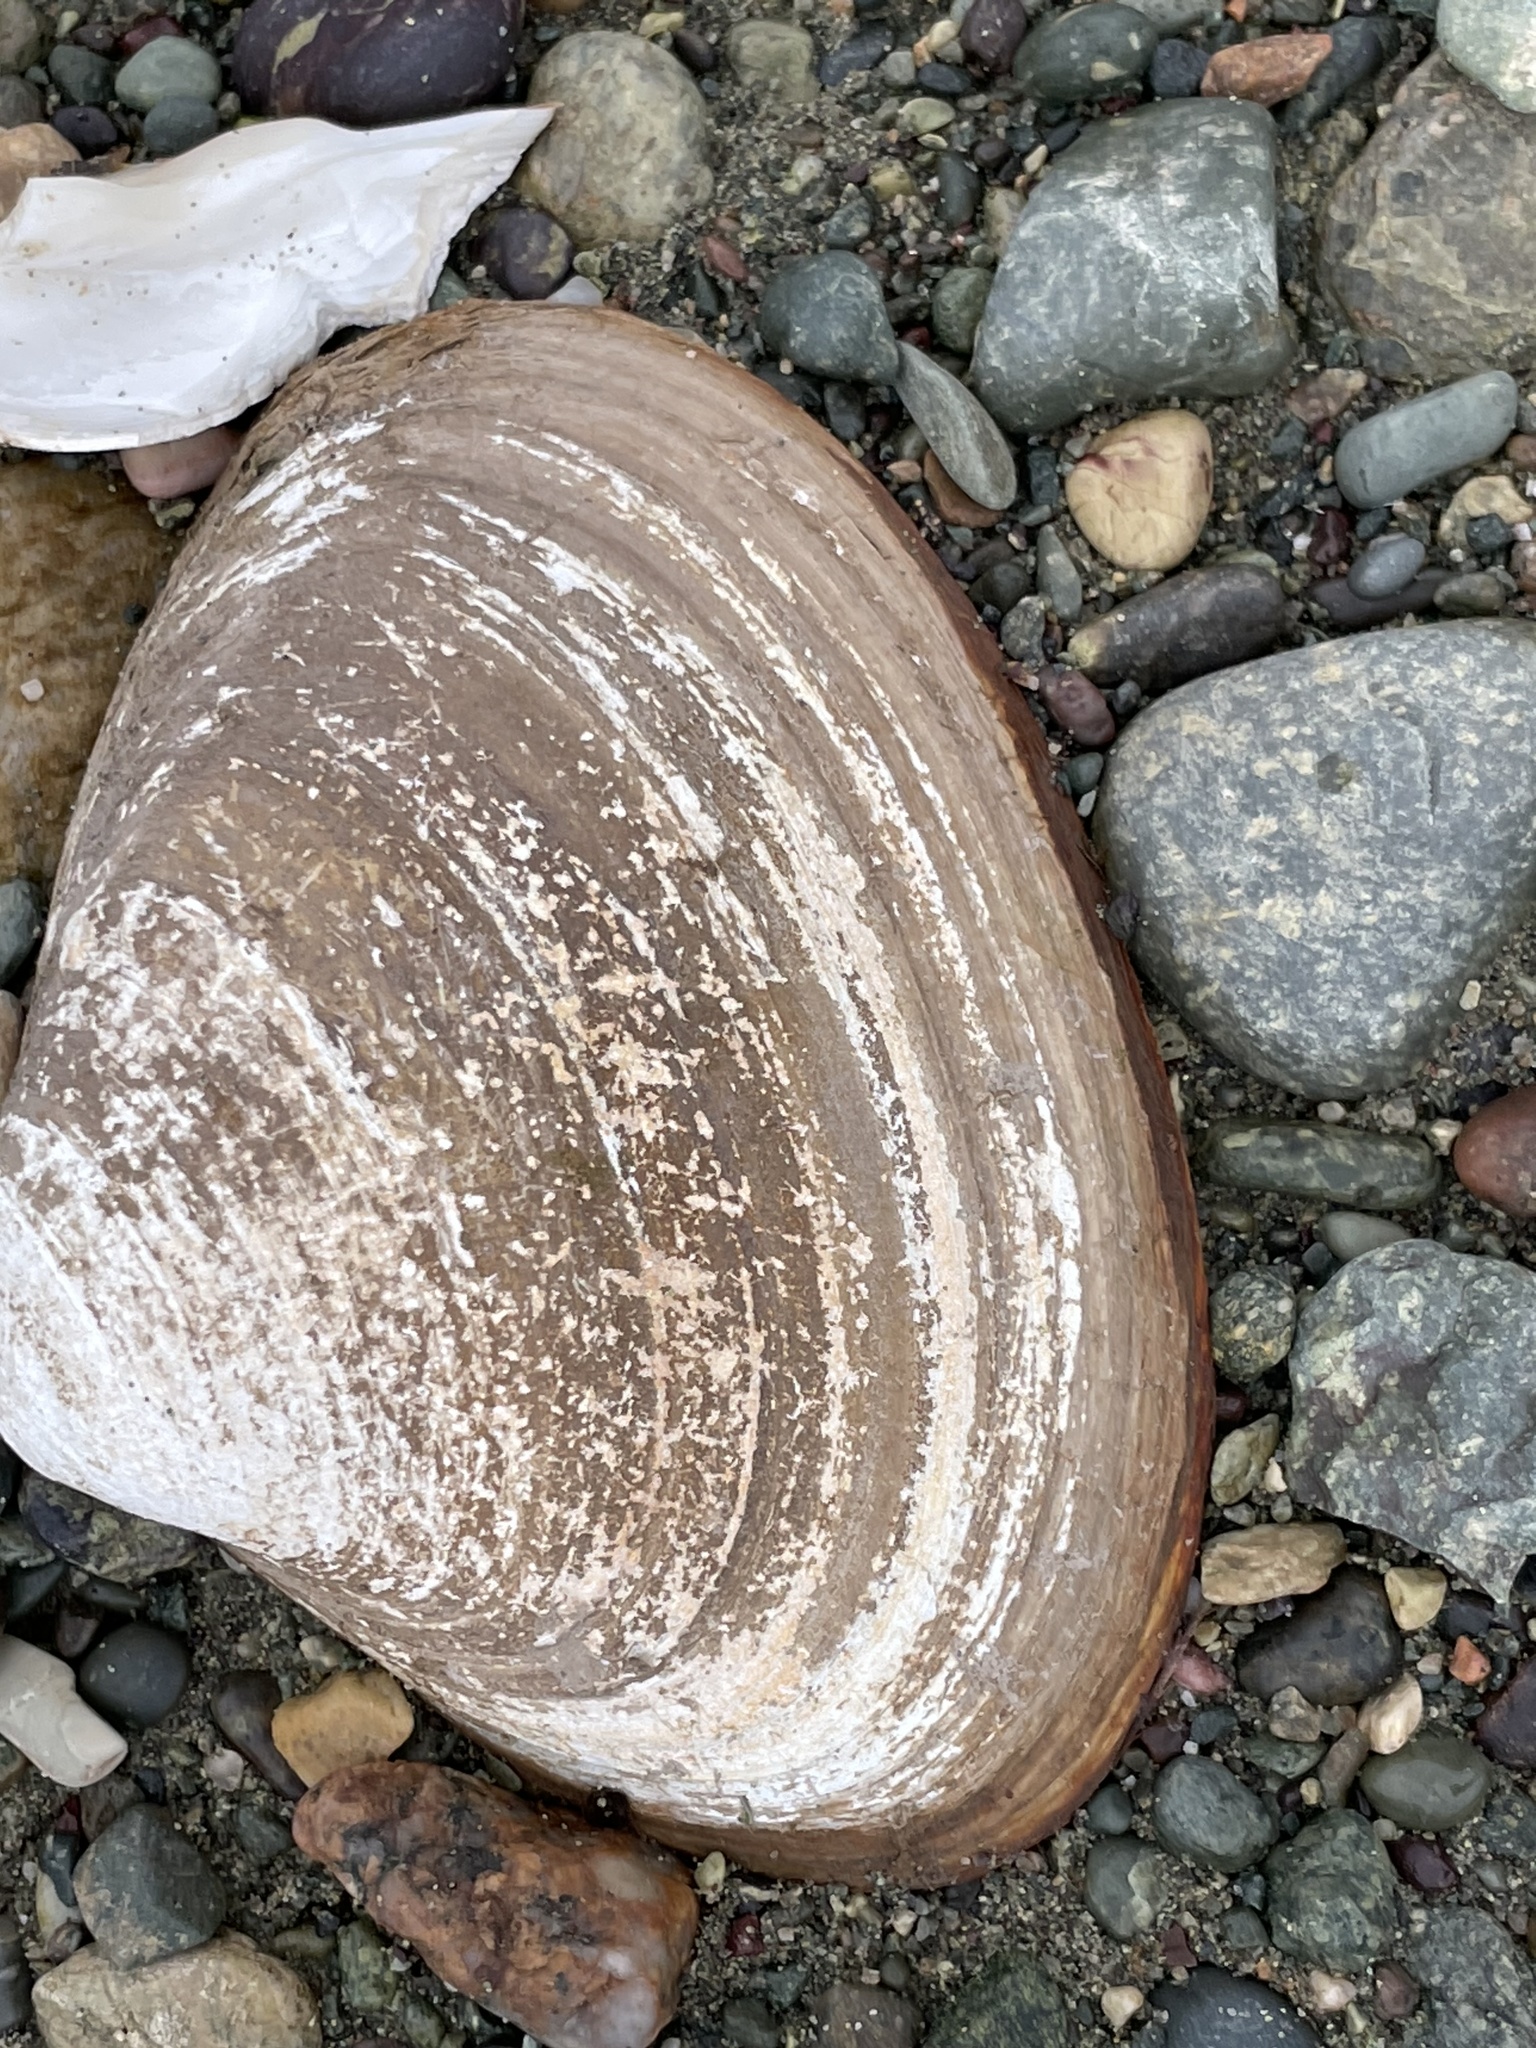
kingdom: Animalia
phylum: Mollusca
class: Bivalvia
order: Venerida
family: Mactridae
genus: Spisula
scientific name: Spisula solidissima
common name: Atlantic surf clam
